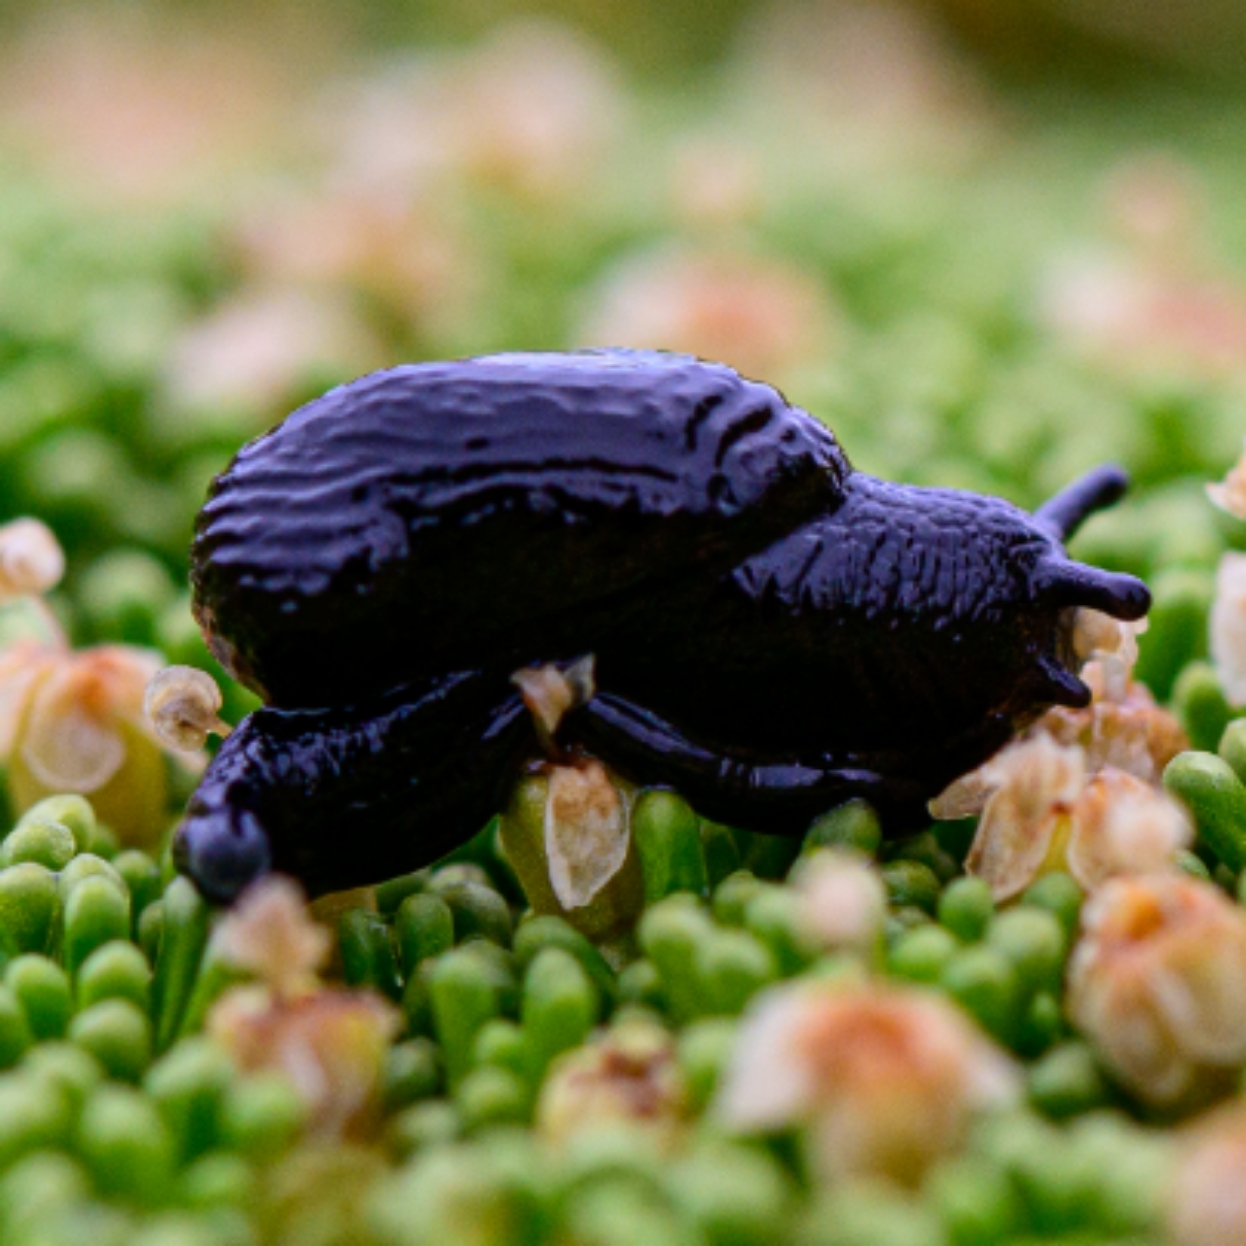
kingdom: Animalia
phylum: Mollusca
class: Gastropoda
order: Stylommatophora
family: Charopidae
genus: Ranfurlya
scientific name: Ranfurlya constanceae
